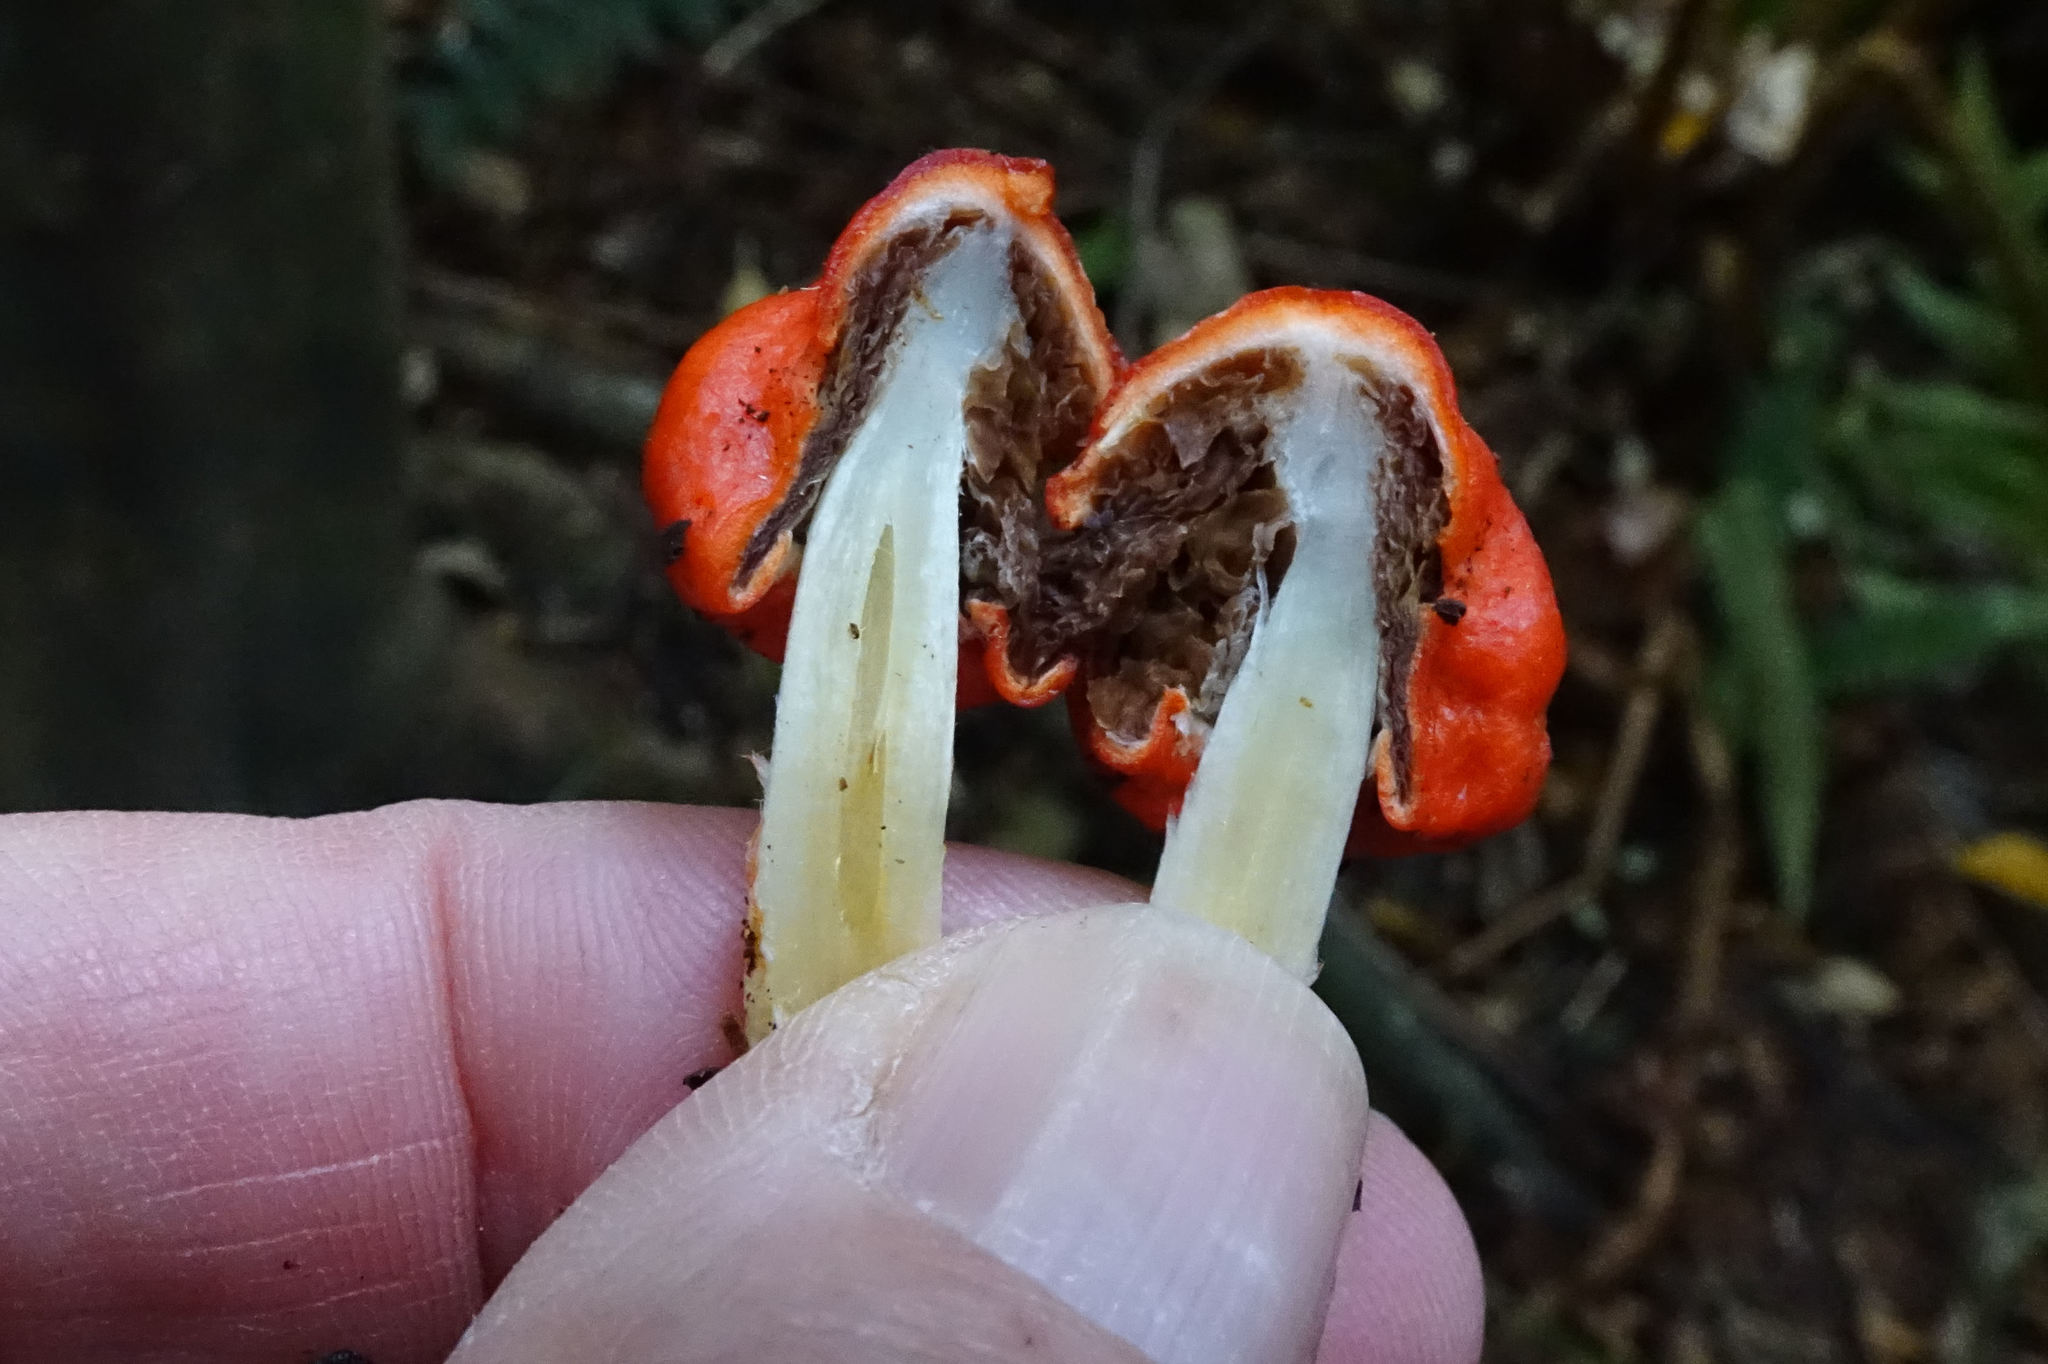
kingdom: Fungi
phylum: Basidiomycota
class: Agaricomycetes
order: Agaricales
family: Strophariaceae
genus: Leratiomyces
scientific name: Leratiomyces erythrocephalus
